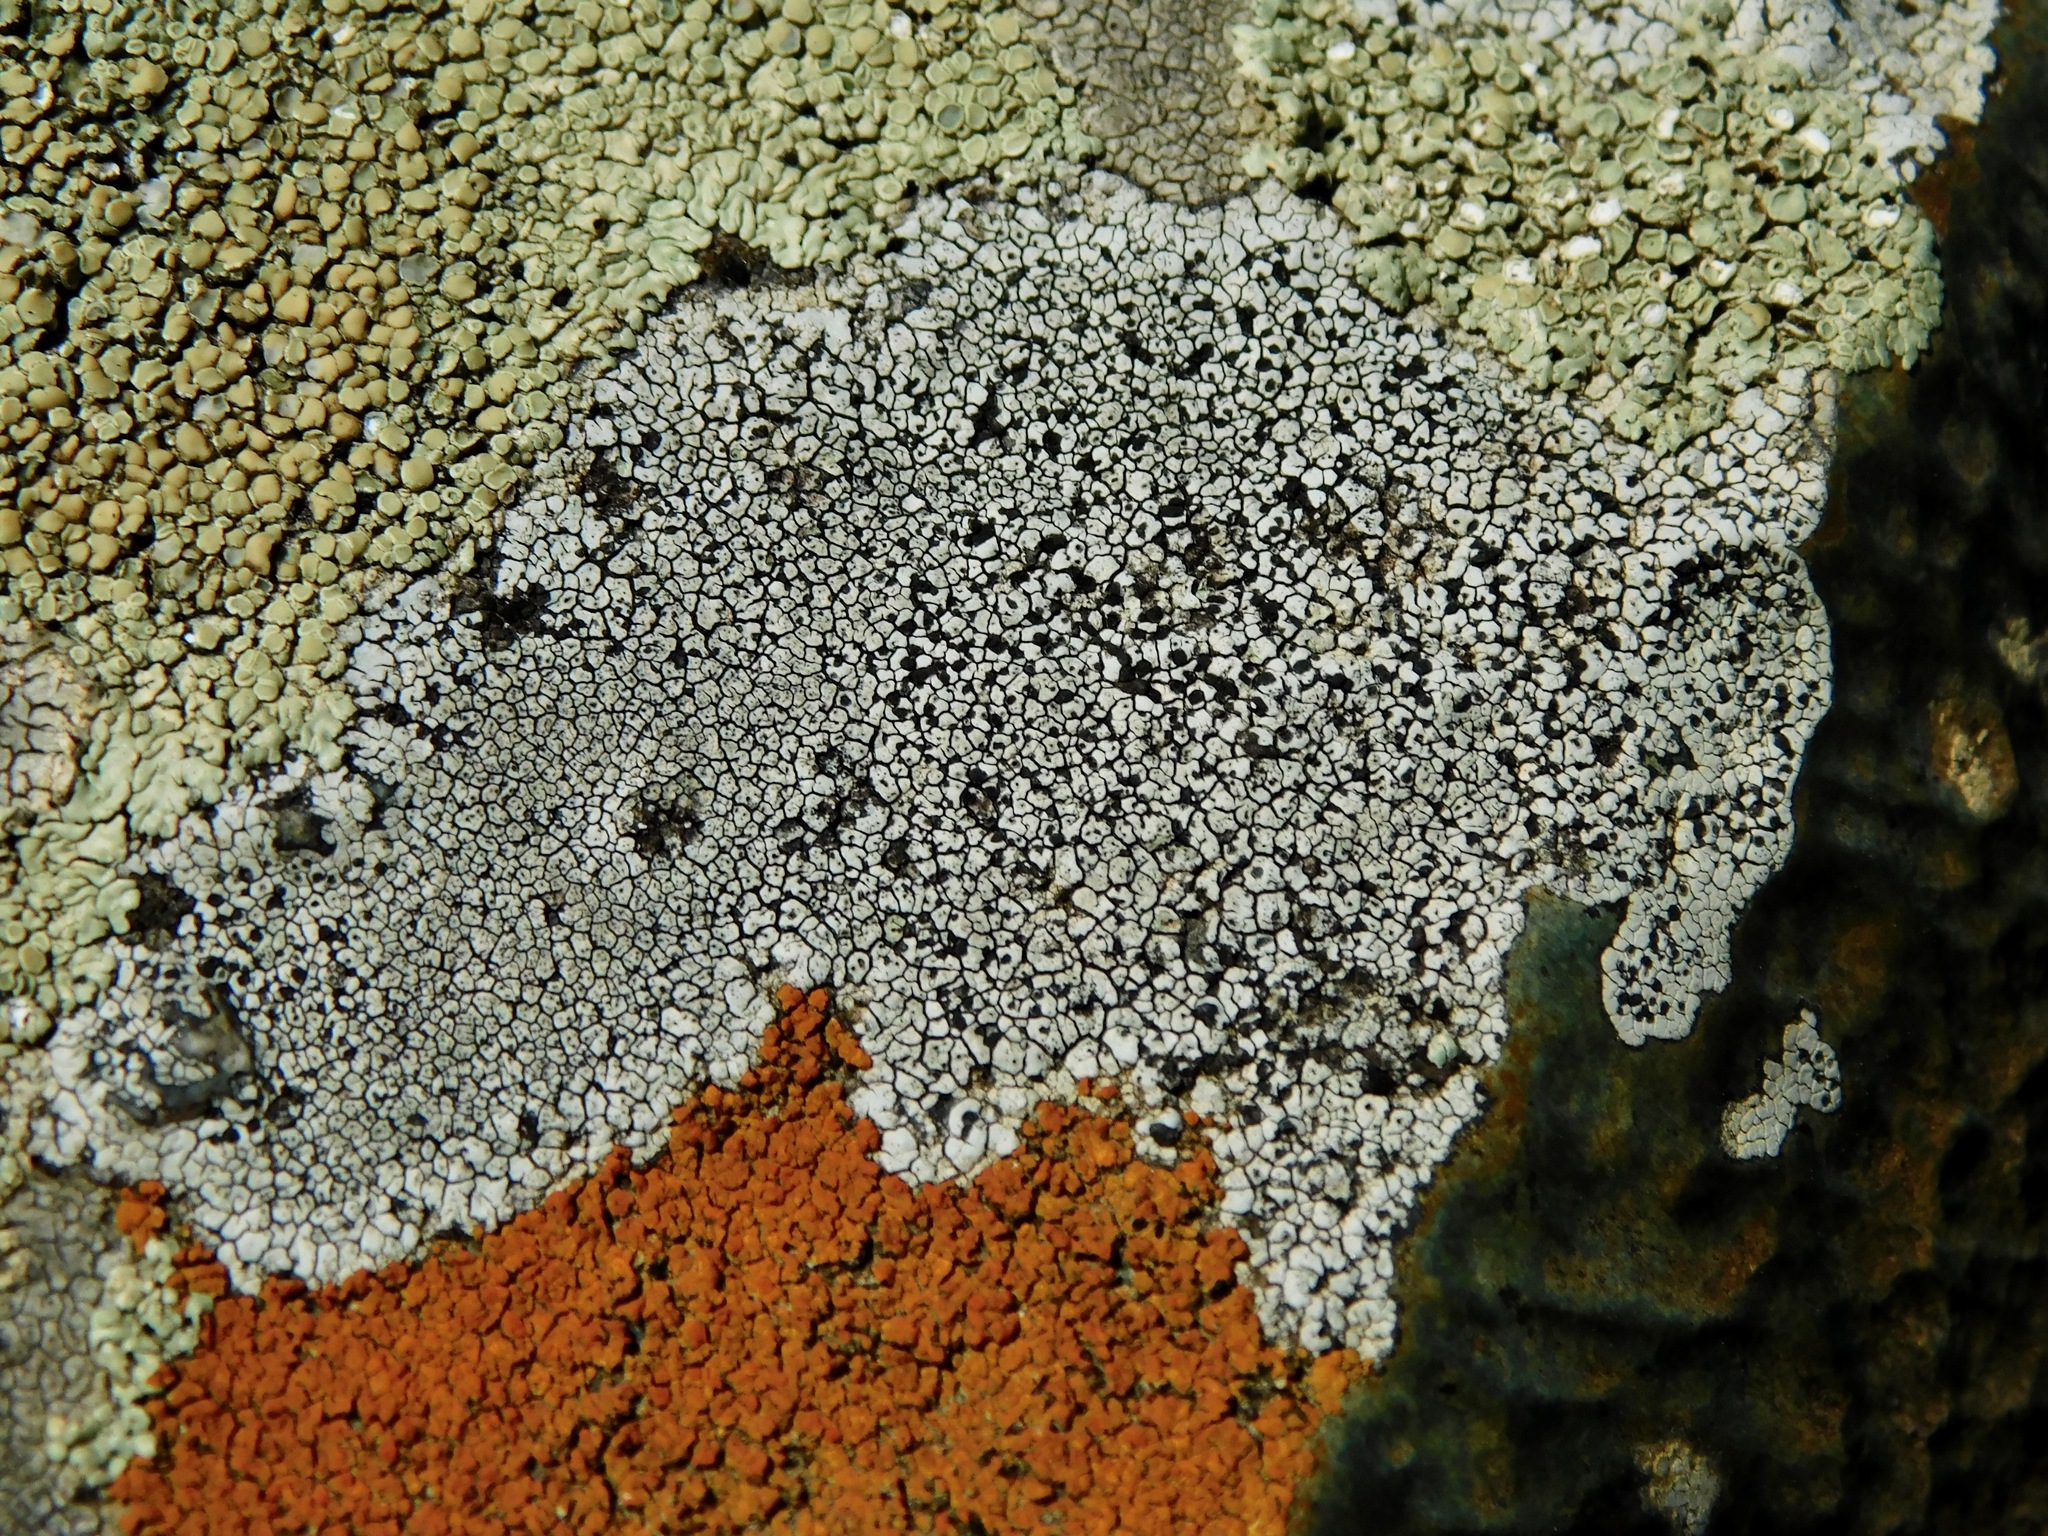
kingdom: Fungi
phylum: Ascomycota
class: Lecanoromycetes
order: Lecanorales
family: Lecanoraceae
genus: Lecanora
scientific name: Lecanora oreinoides
